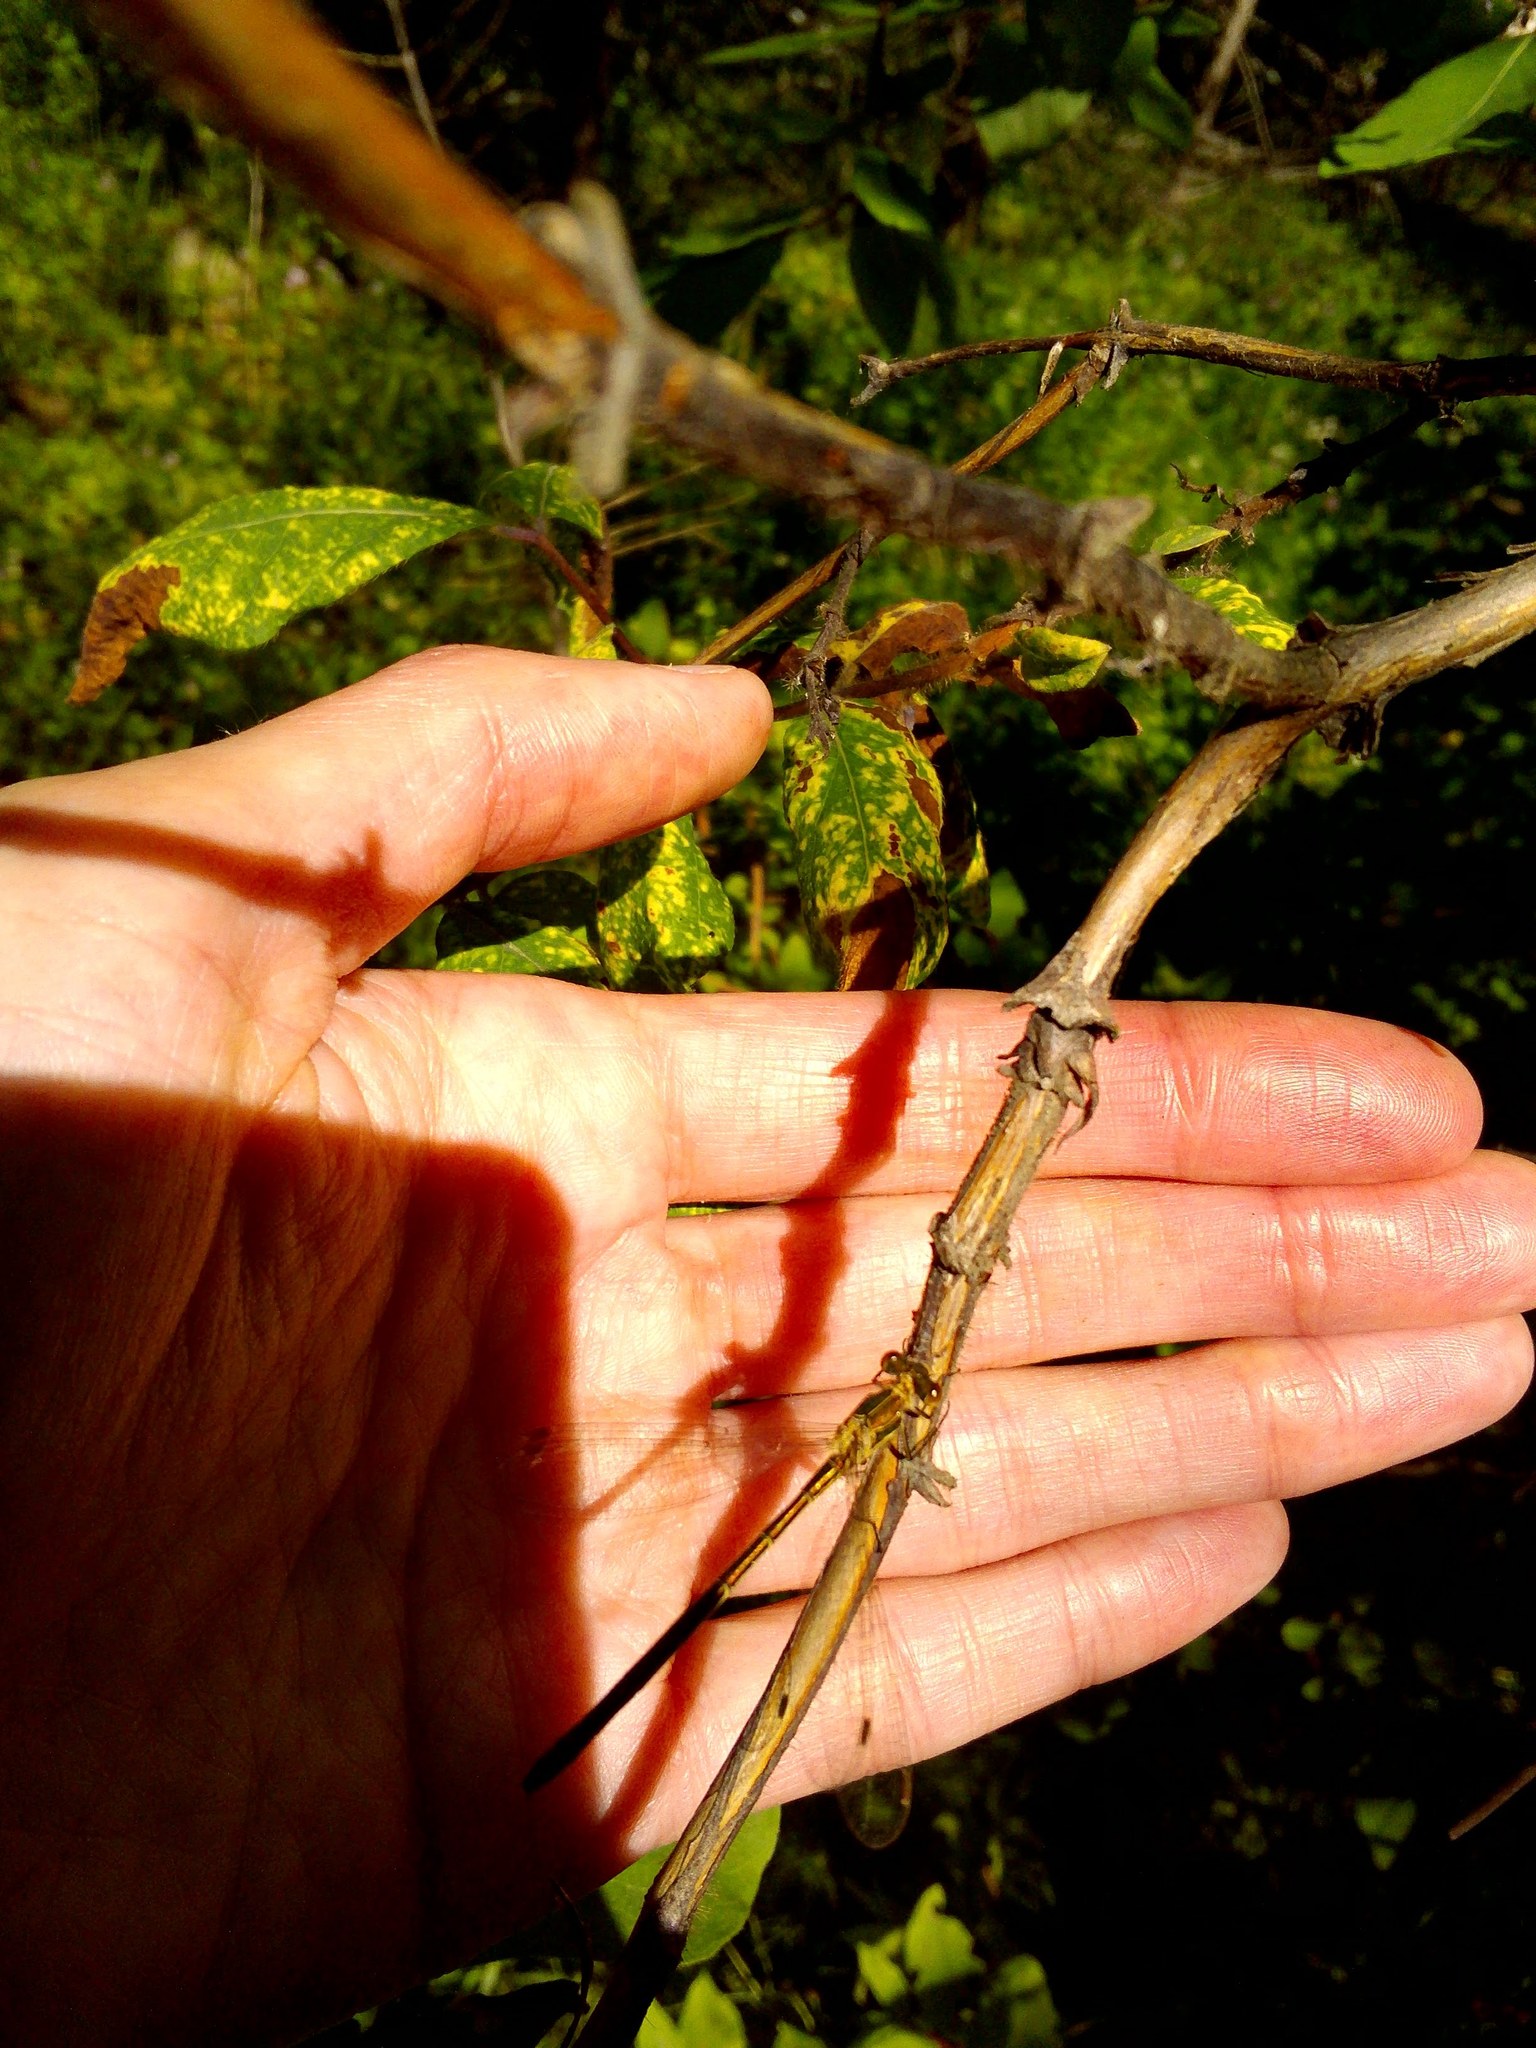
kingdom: Plantae
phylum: Tracheophyta
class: Magnoliopsida
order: Dipsacales
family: Caprifoliaceae
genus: Lonicera
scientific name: Lonicera caerulea
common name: Blue honeysuckle
